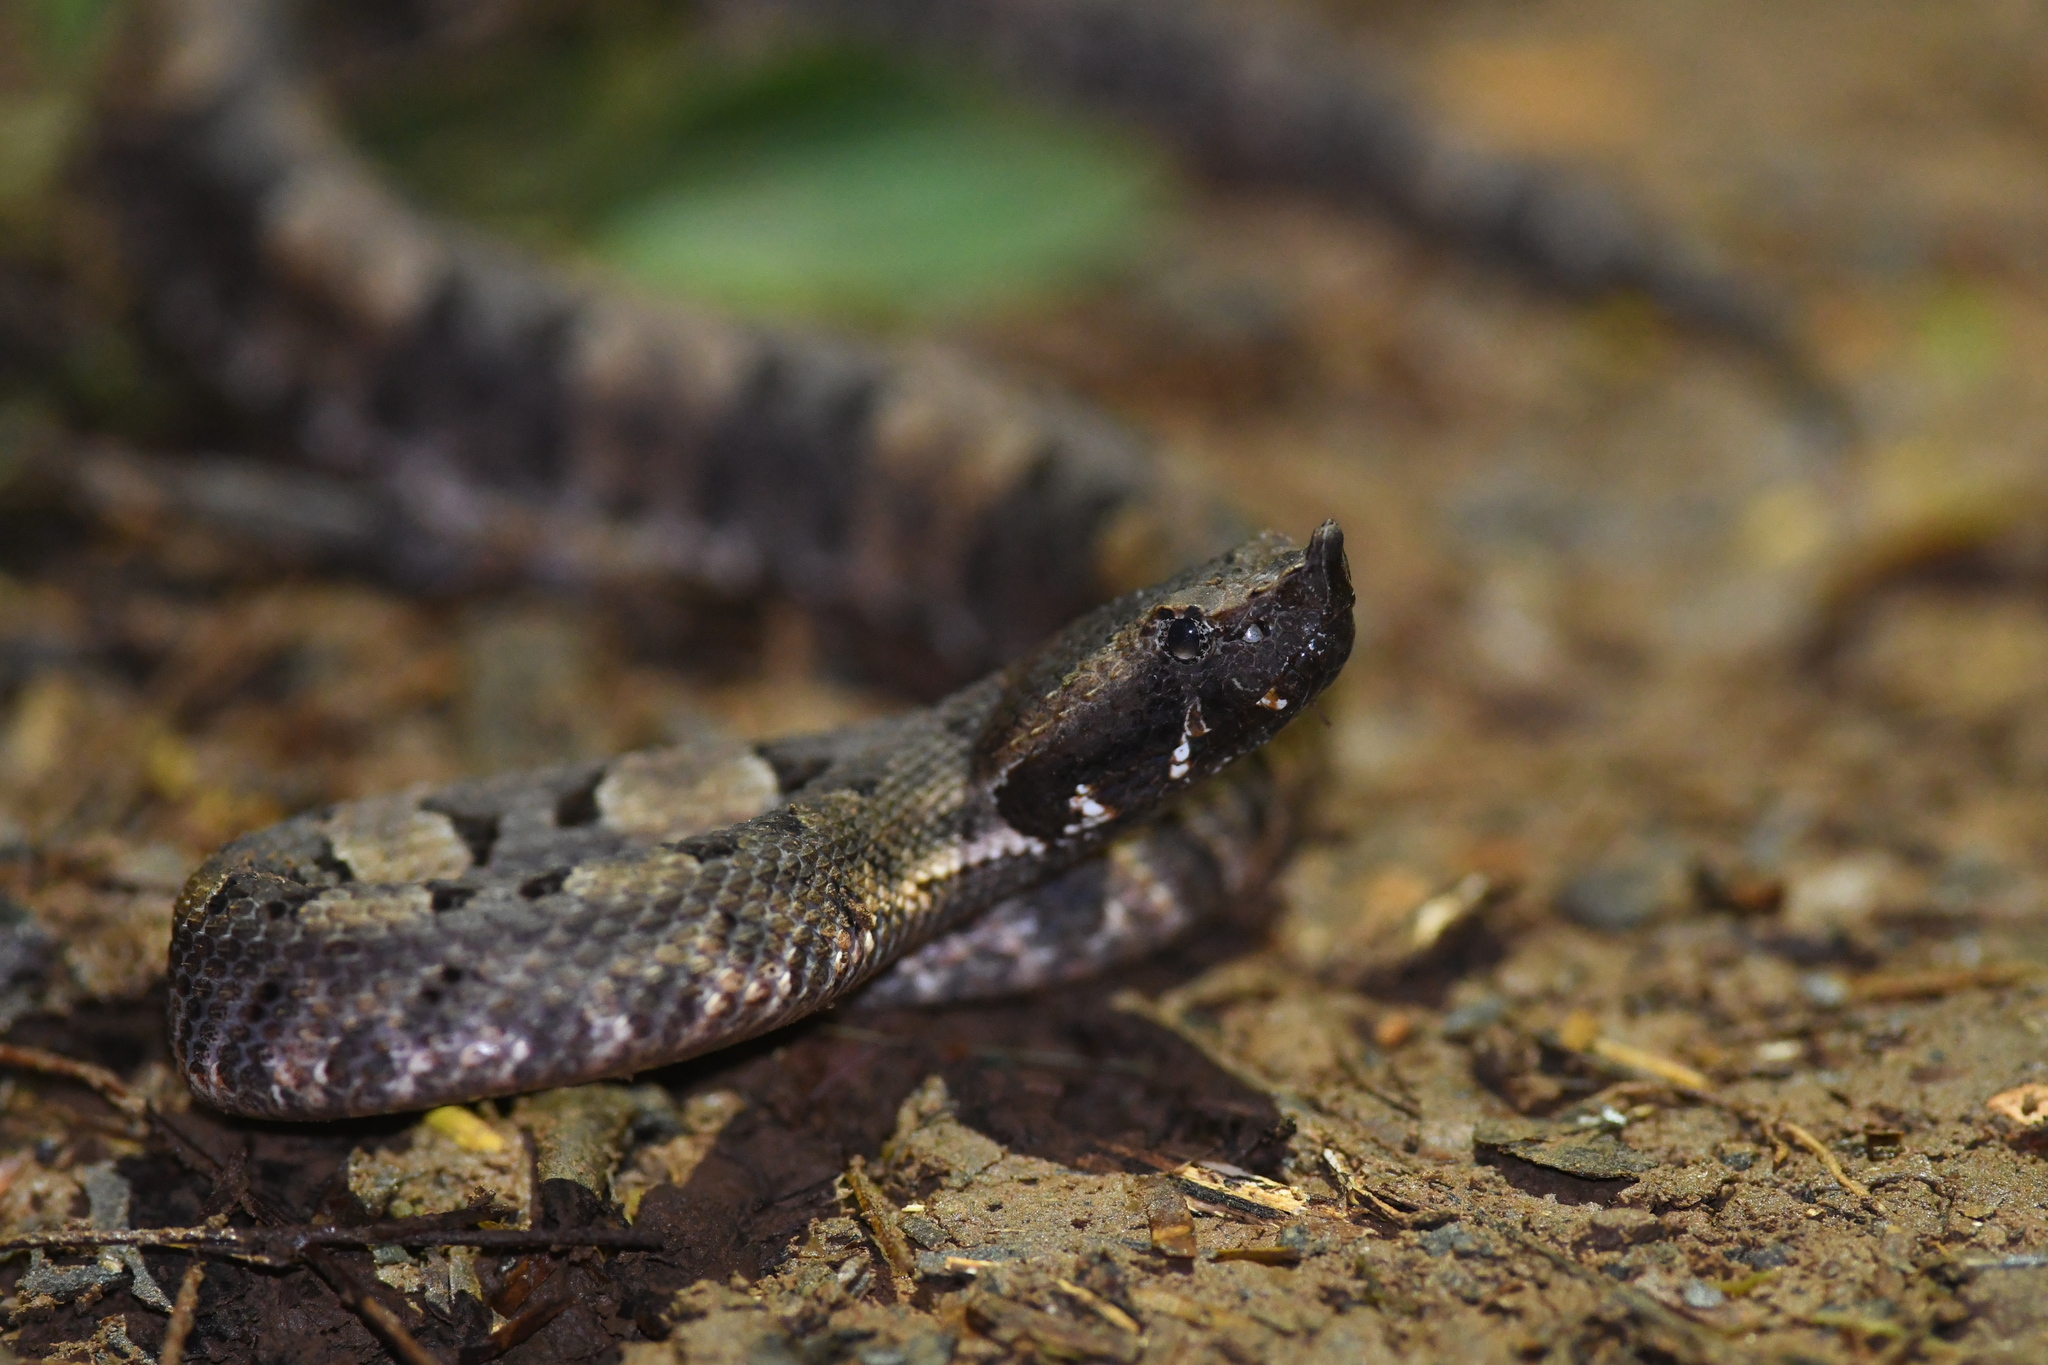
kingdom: Animalia
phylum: Chordata
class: Squamata
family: Viperidae
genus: Porthidium
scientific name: Porthidium nasutum
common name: Hognosed pit viper
